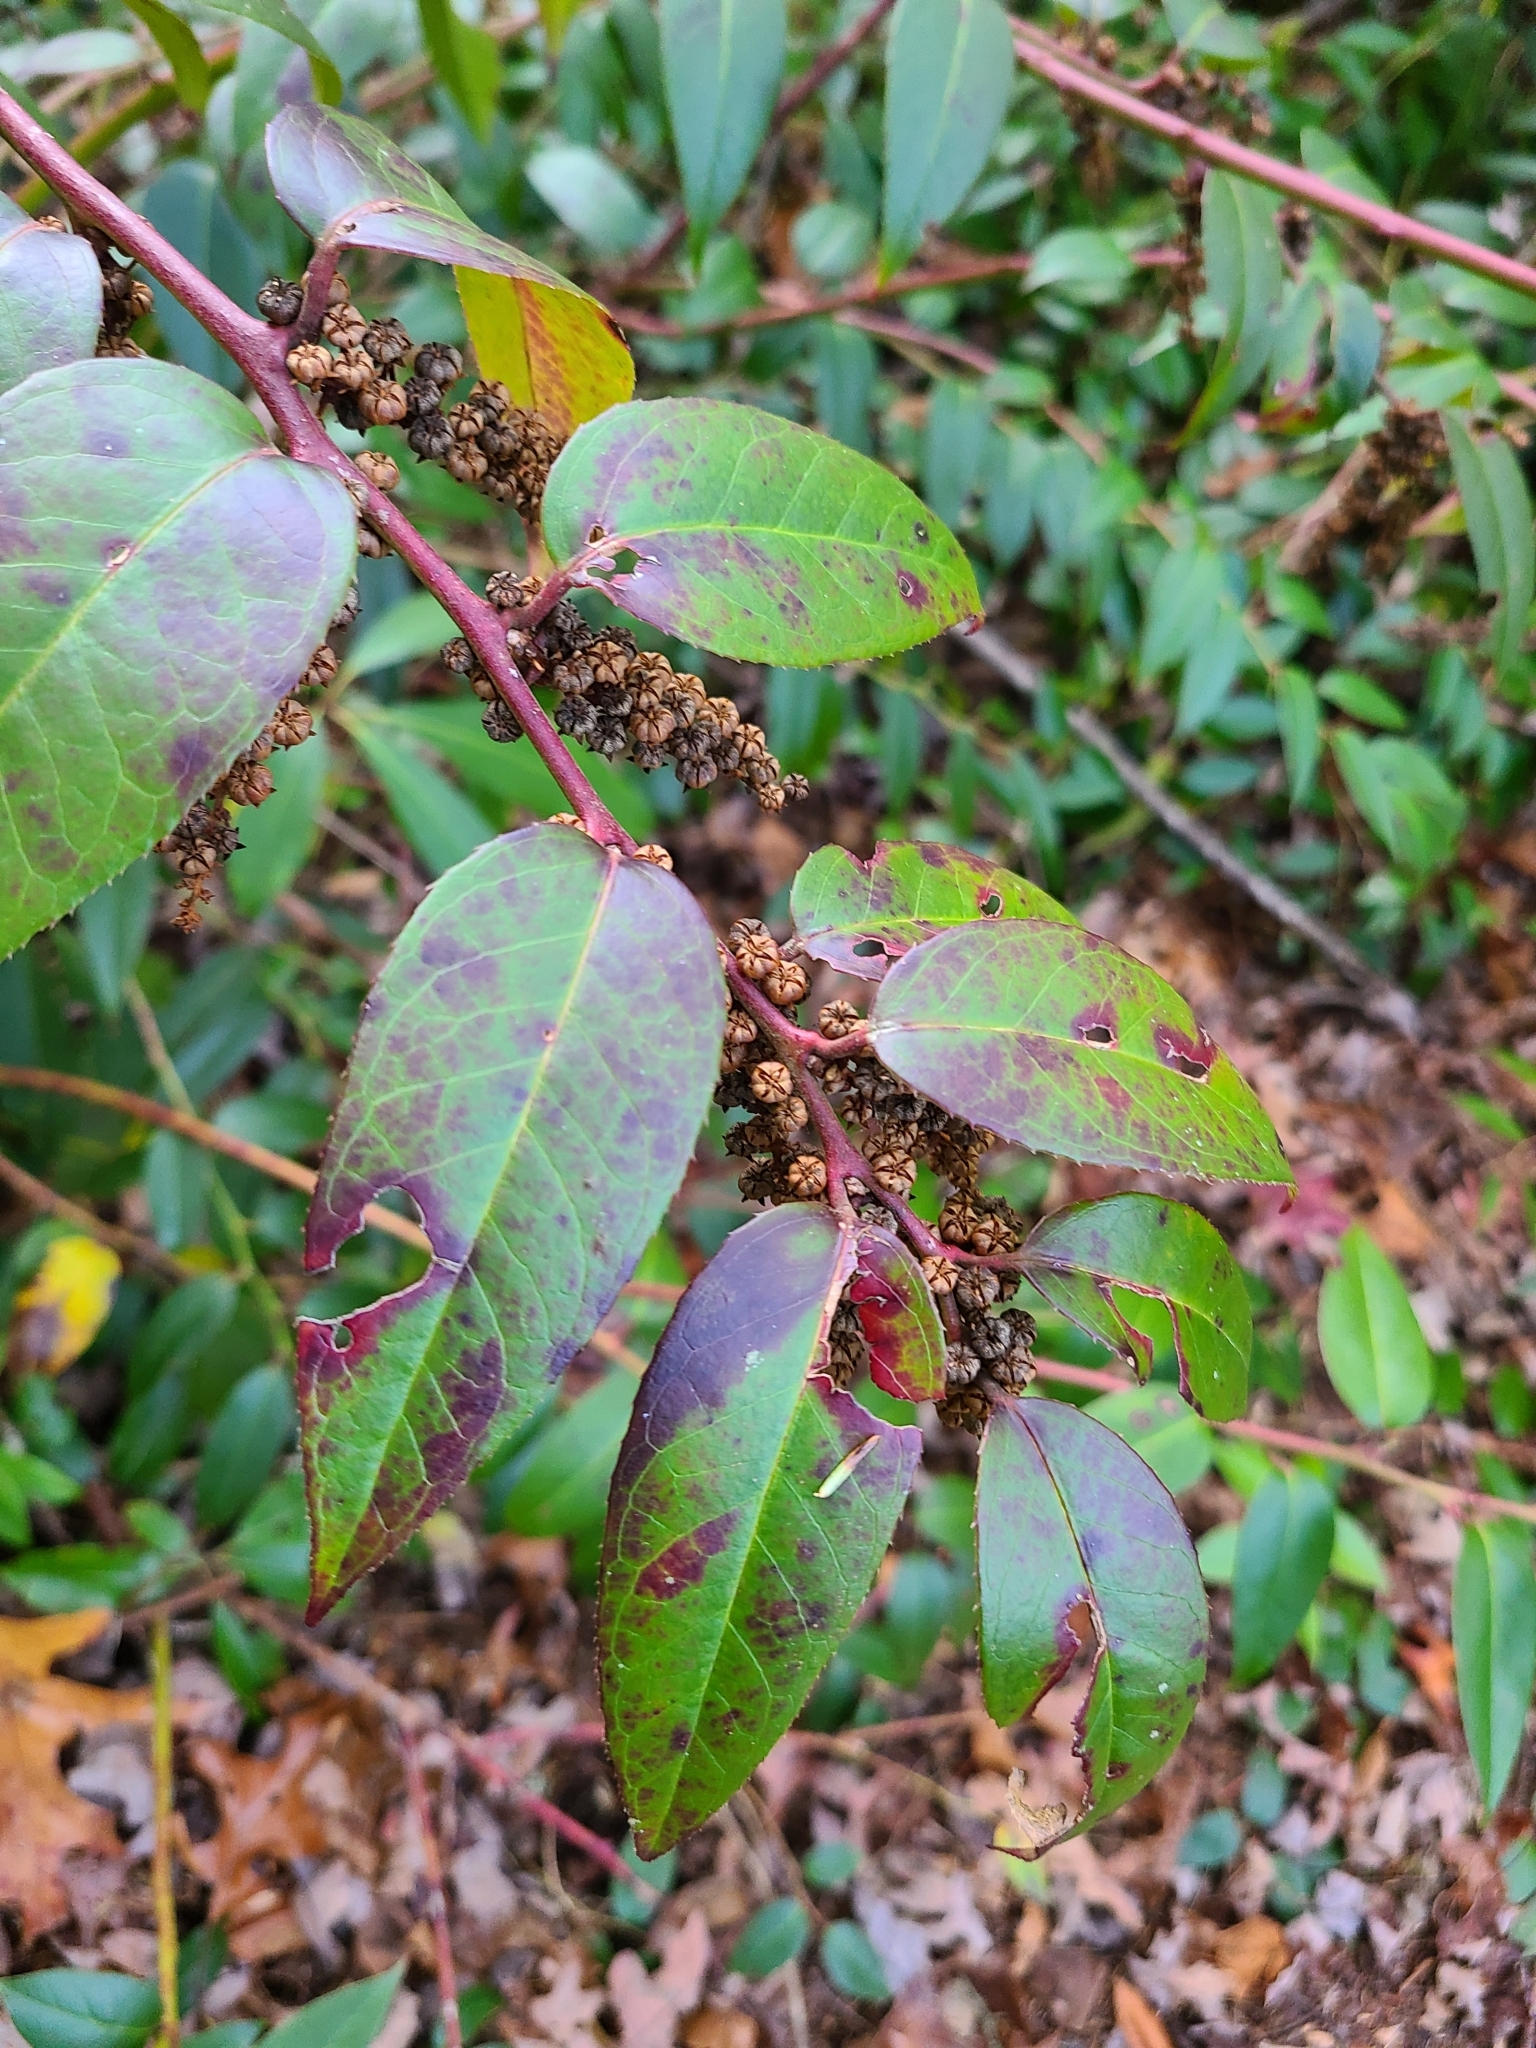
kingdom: Plantae
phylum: Tracheophyta
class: Magnoliopsida
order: Ericales
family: Ericaceae
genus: Leucothoe
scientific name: Leucothoe fontanesiana
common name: Fetterbush
